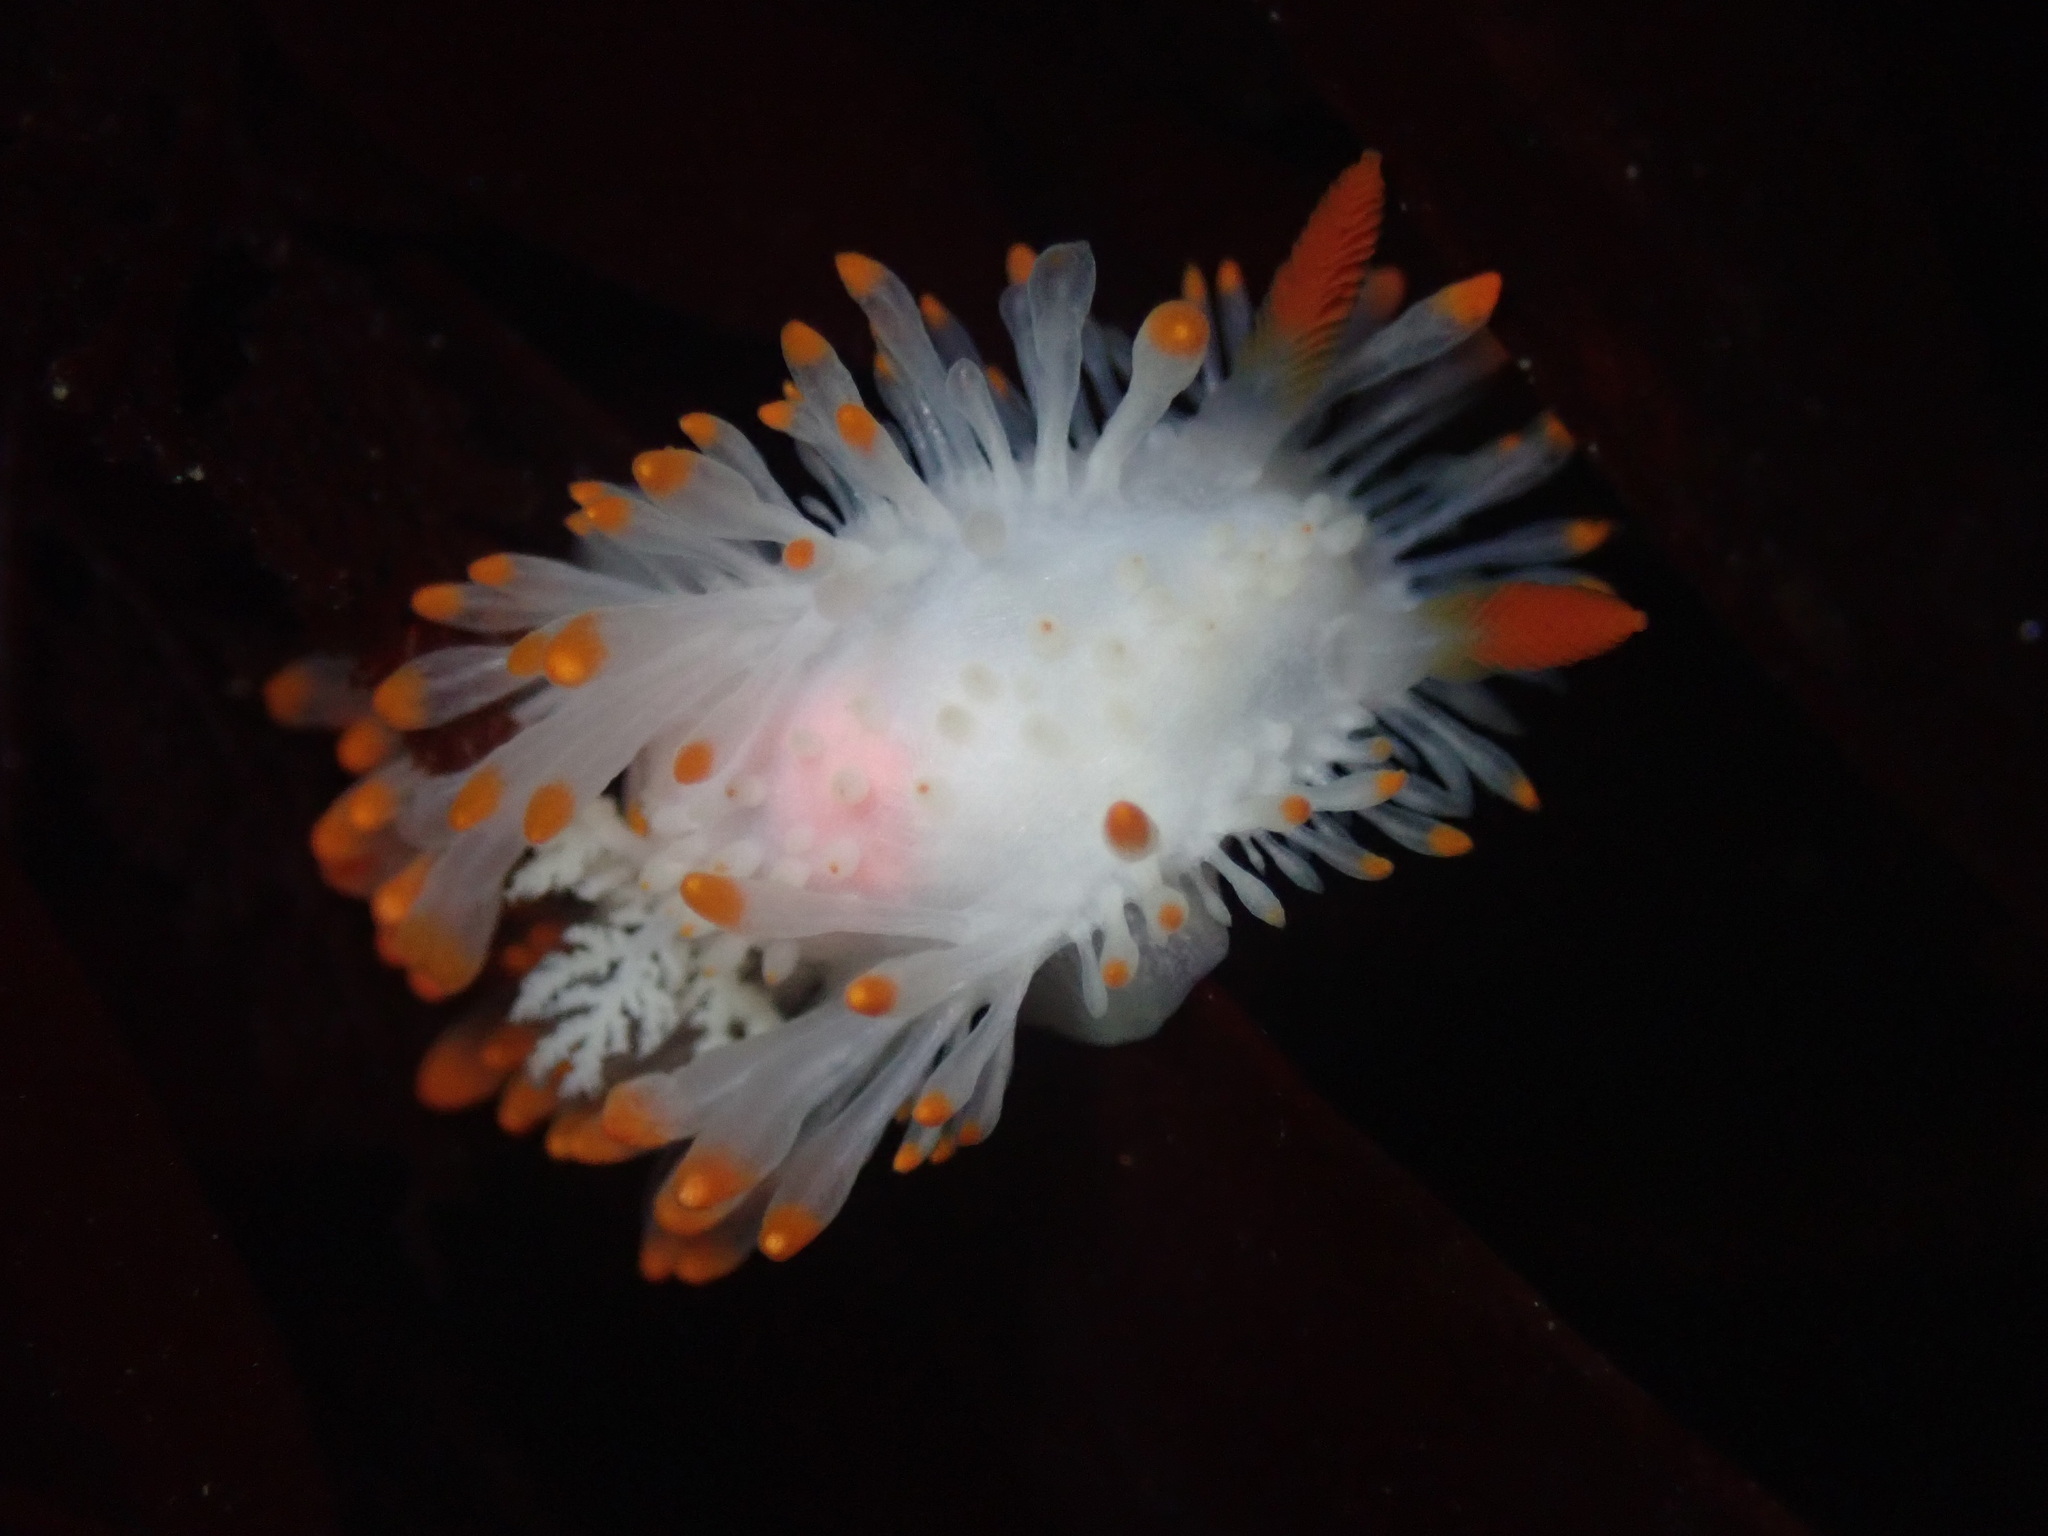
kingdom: Animalia
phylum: Mollusca
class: Gastropoda
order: Nudibranchia
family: Polyceridae
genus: Limacia
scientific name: Limacia cockerelli
